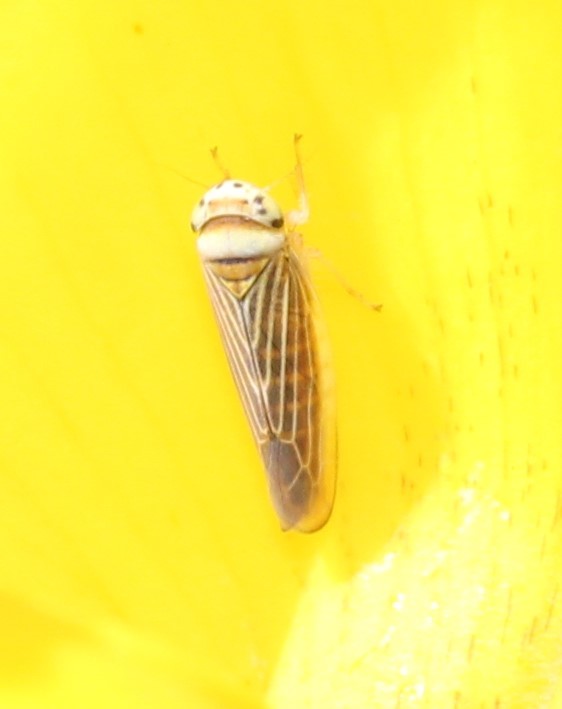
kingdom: Animalia
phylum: Arthropoda
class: Insecta
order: Hemiptera
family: Cicadellidae
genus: Colladonus
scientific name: Colladonus brunneus
